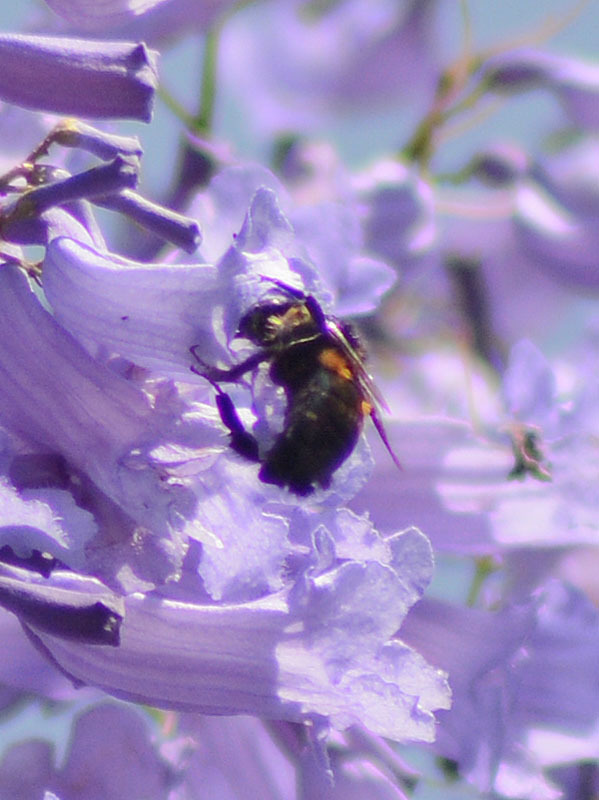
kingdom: Animalia
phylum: Arthropoda
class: Insecta
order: Hymenoptera
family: Apidae
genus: Bombus
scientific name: Bombus ephippiatus
